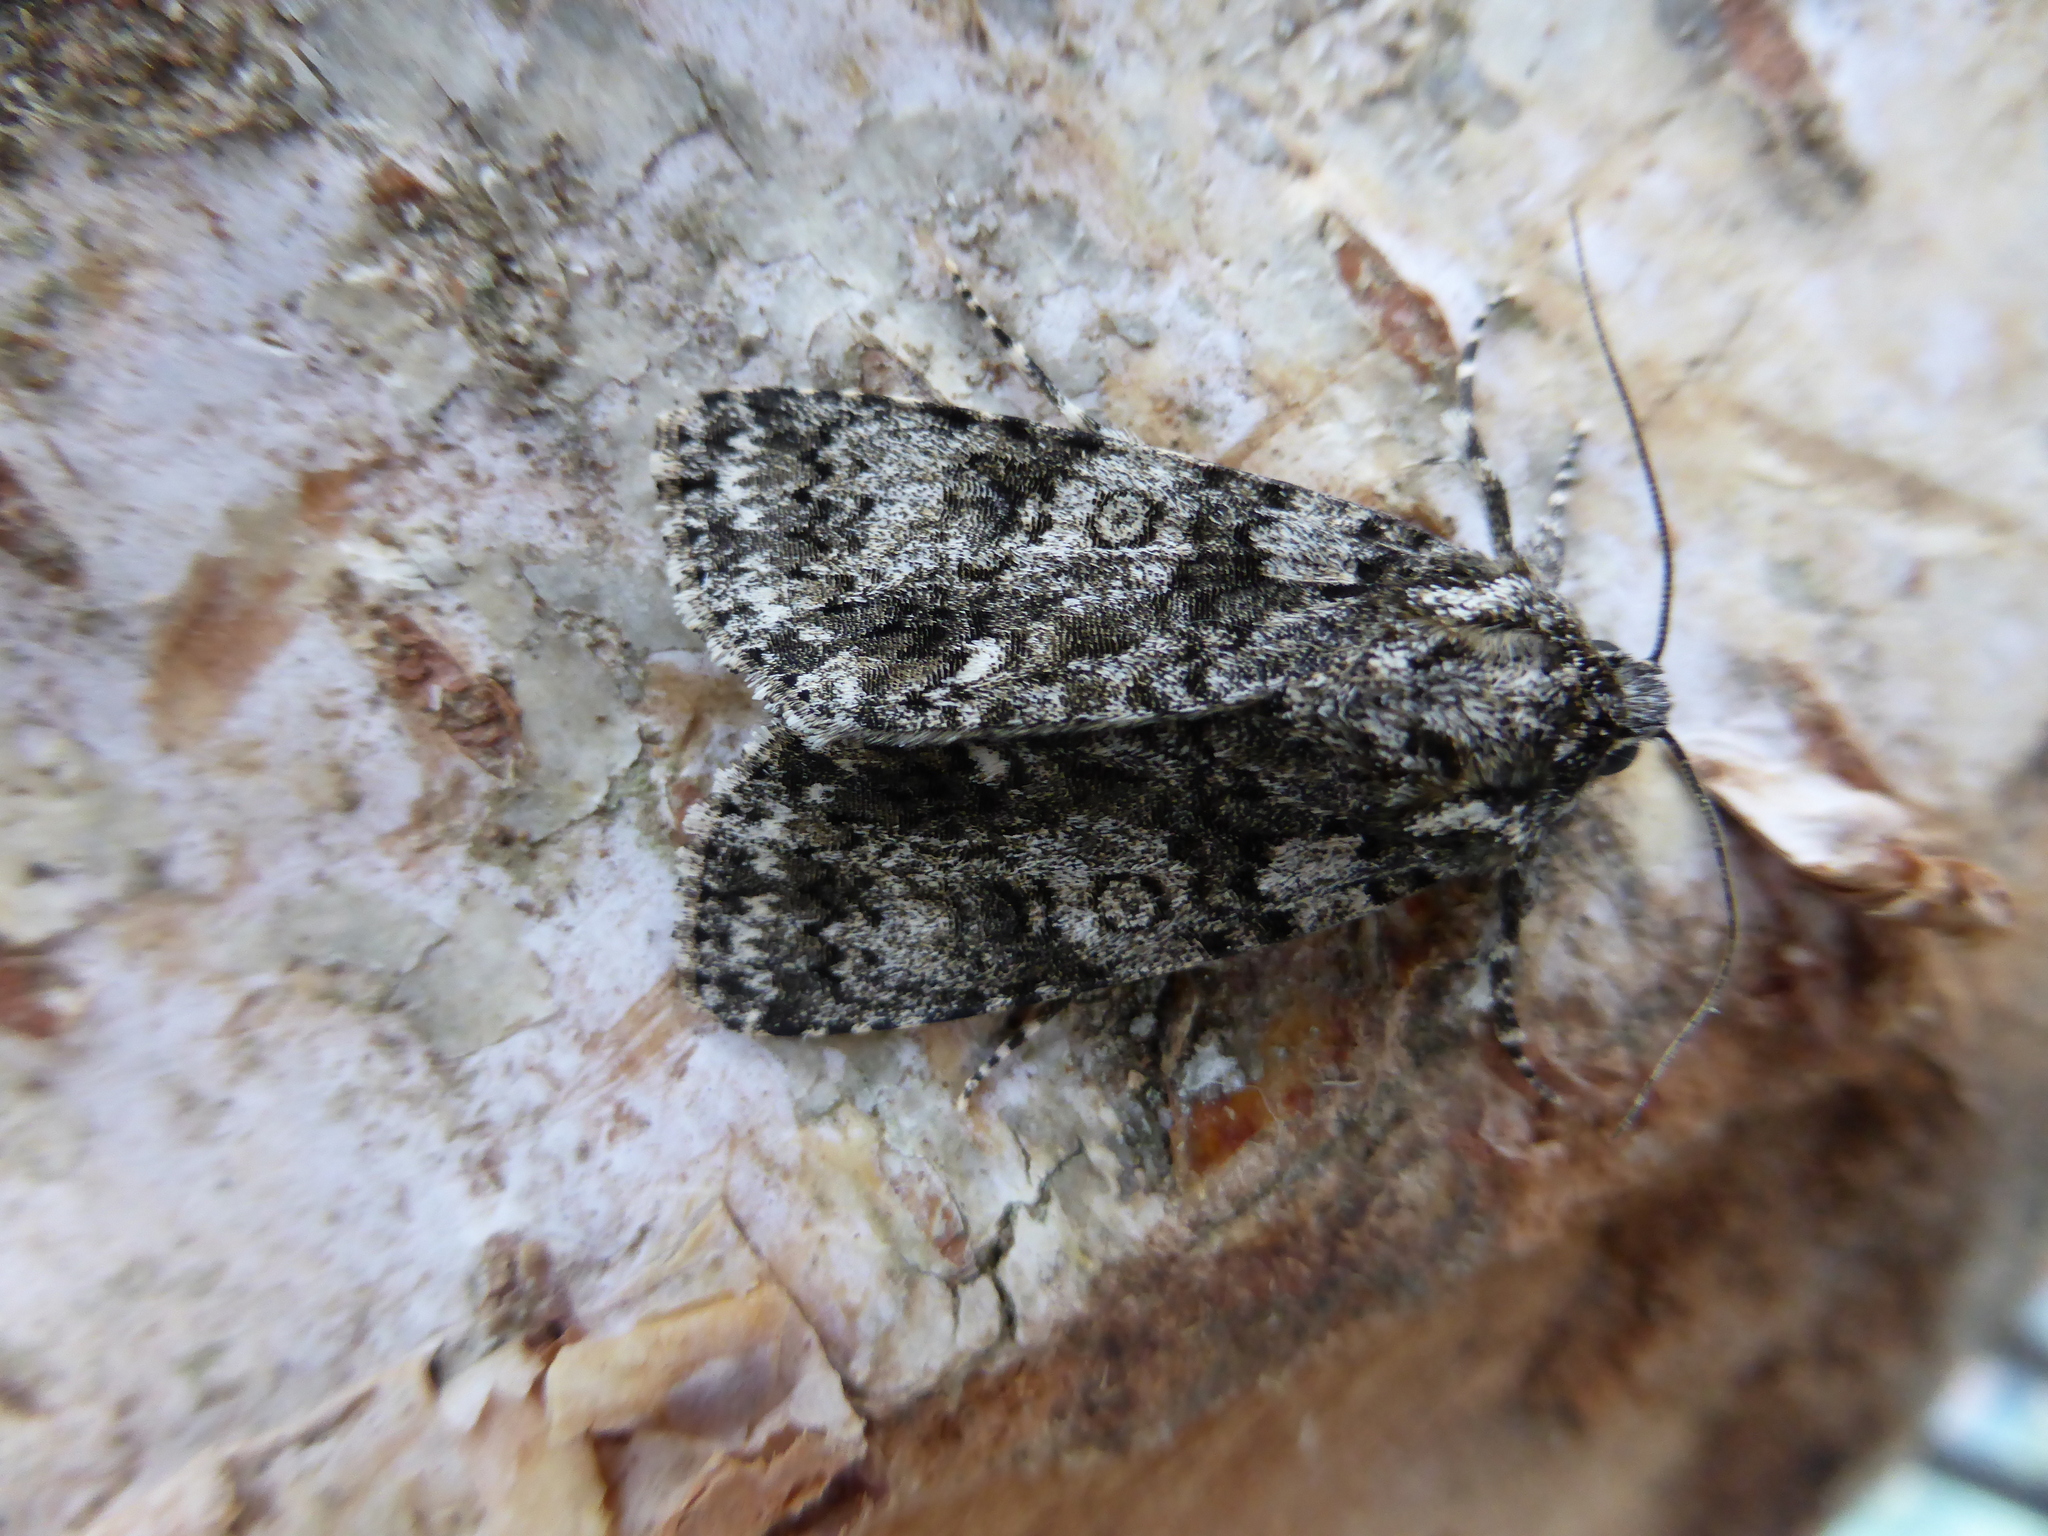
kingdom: Animalia
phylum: Arthropoda
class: Insecta
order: Lepidoptera
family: Noctuidae
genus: Acronicta
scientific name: Acronicta rumicis
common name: Knot grass
